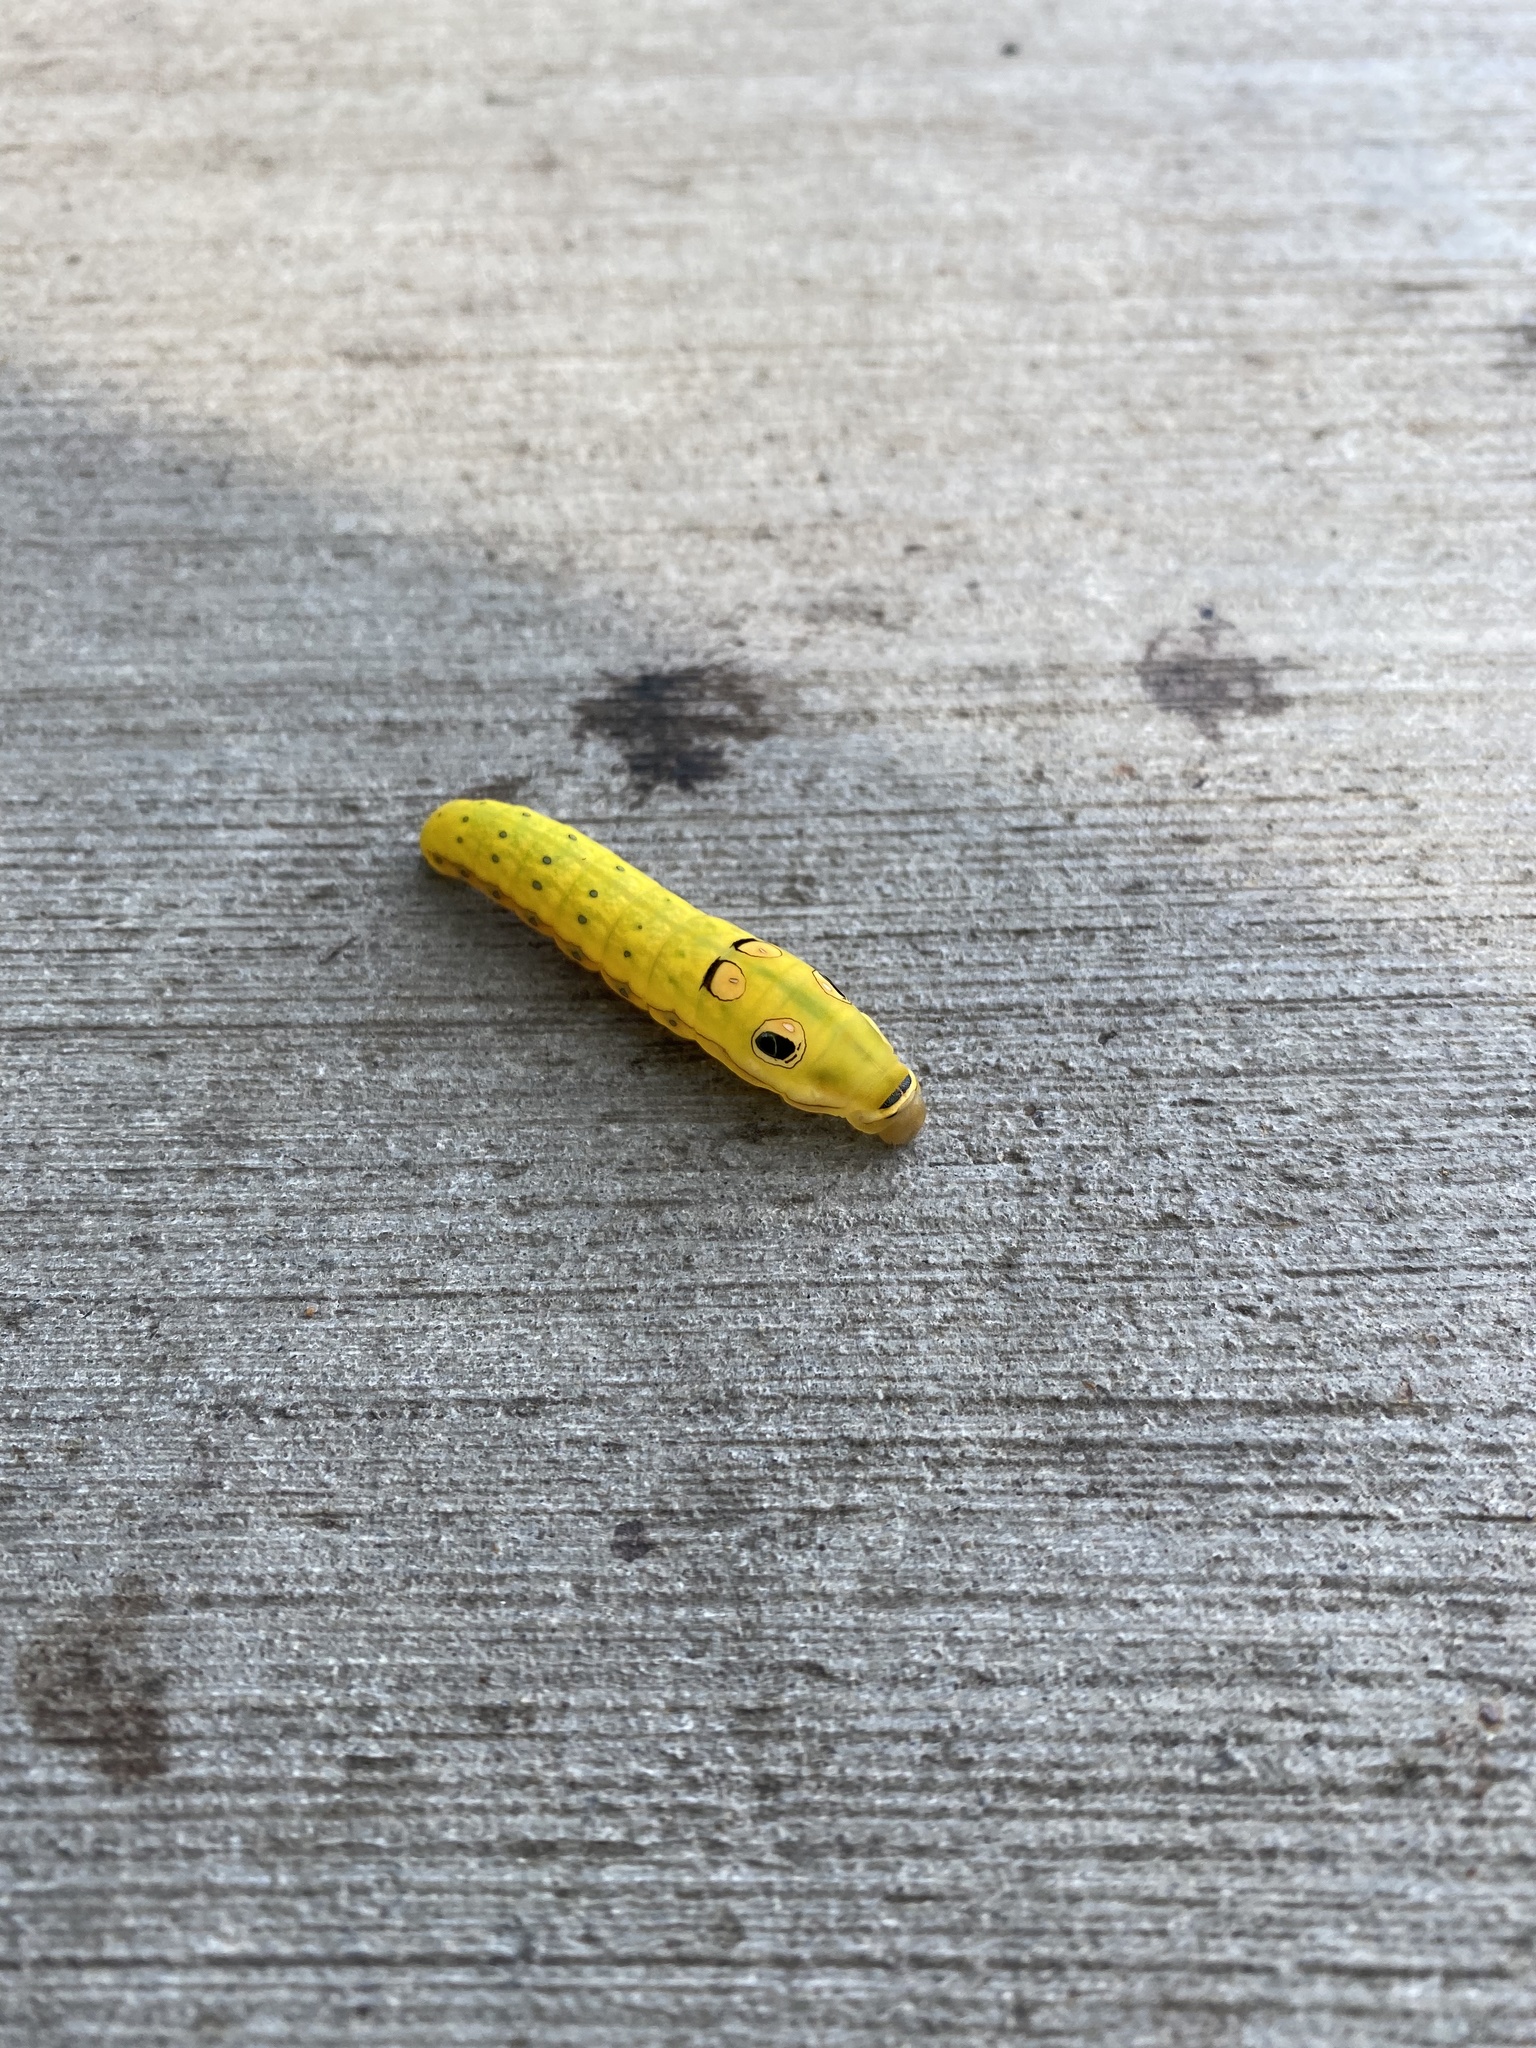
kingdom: Animalia
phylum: Arthropoda
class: Insecta
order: Lepidoptera
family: Papilionidae
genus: Papilio
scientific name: Papilio troilus
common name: Spicebush swallowtail
